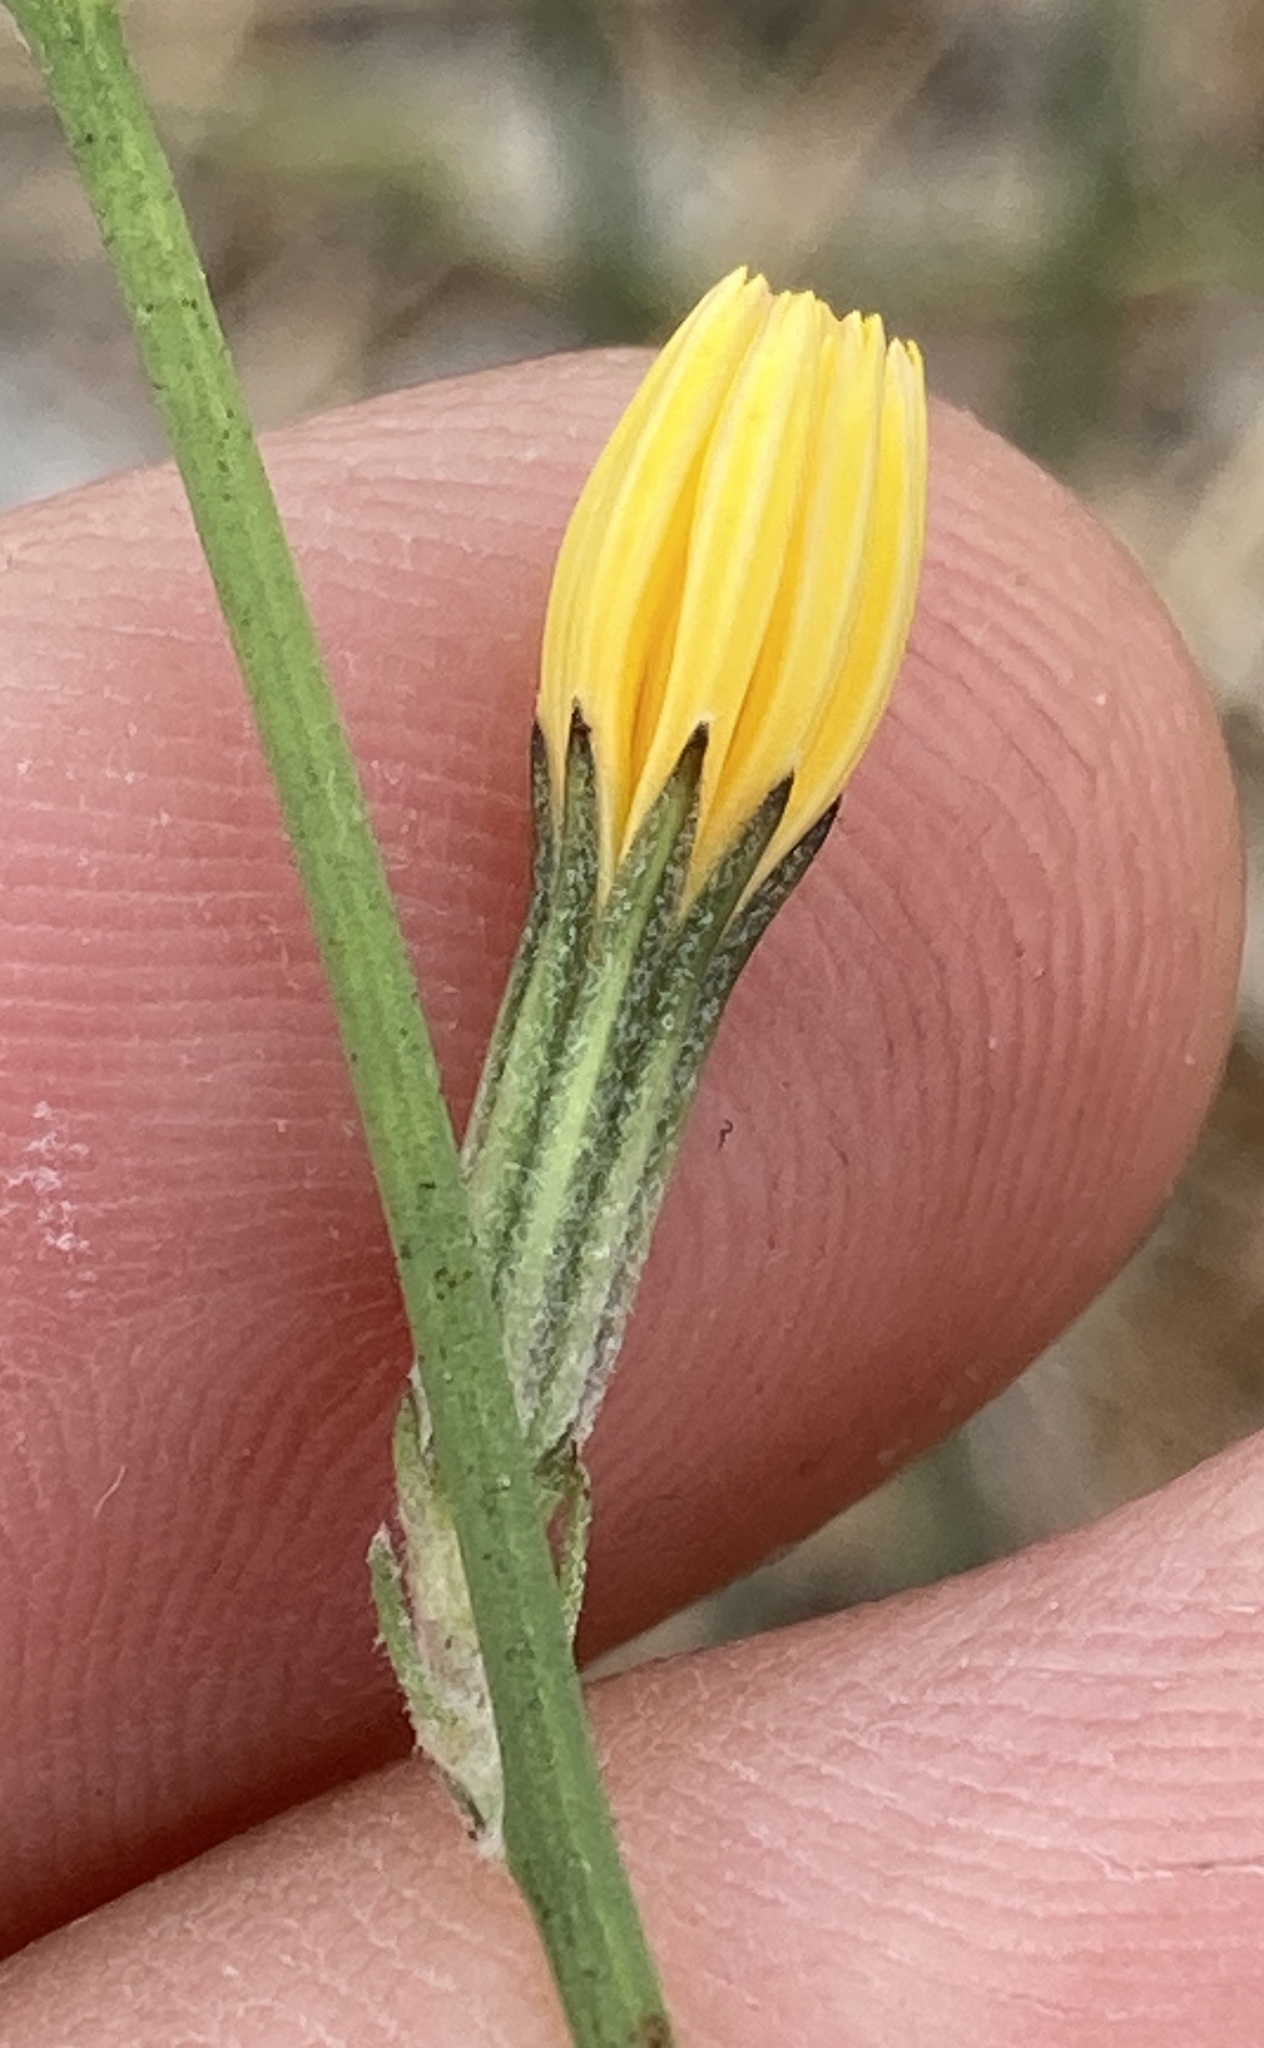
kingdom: Plantae
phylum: Tracheophyta
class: Magnoliopsida
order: Asterales
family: Asteraceae
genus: Chondrilla
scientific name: Chondrilla juncea
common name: Skeleton weed
